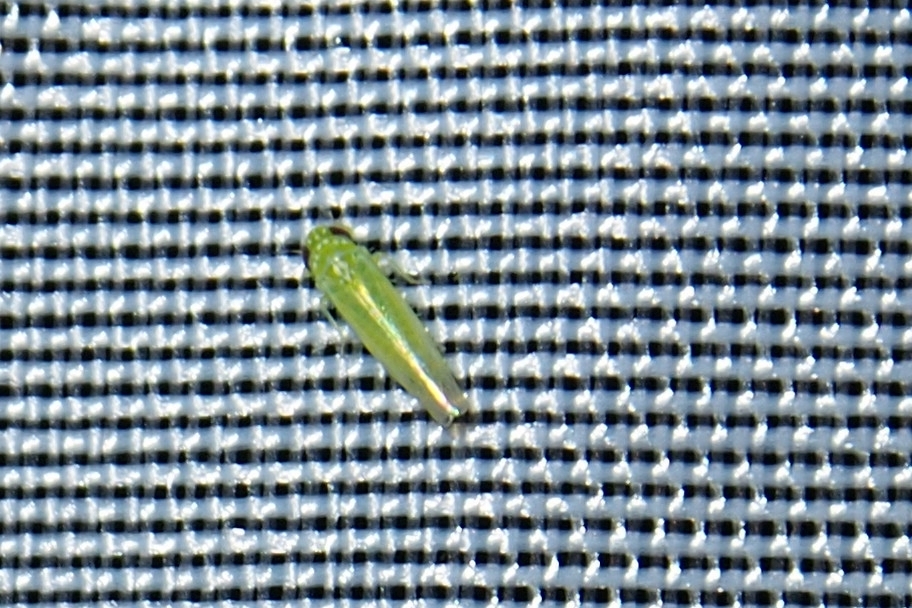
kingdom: Animalia
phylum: Arthropoda
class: Insecta
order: Hemiptera
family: Cicadellidae
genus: Empoasca
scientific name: Empoasca fabae
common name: Potato leafhopper
